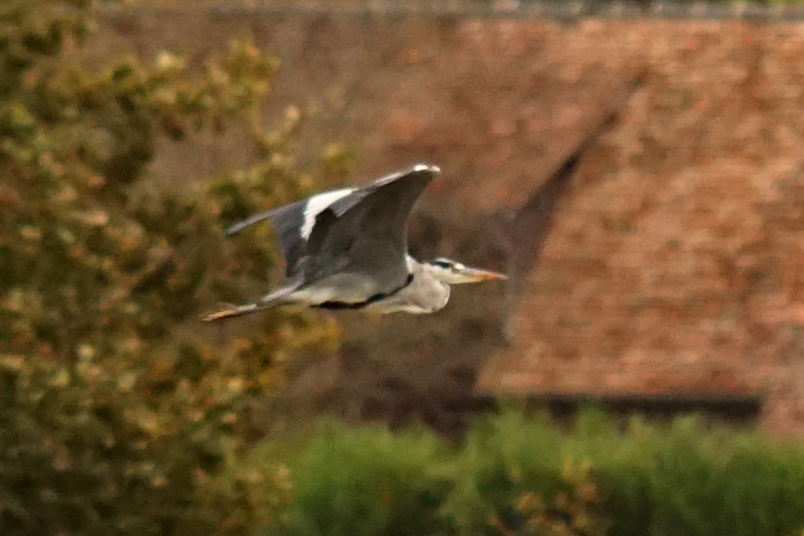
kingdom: Animalia
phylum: Chordata
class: Aves
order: Pelecaniformes
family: Ardeidae
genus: Ardea
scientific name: Ardea cinerea
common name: Grey heron
